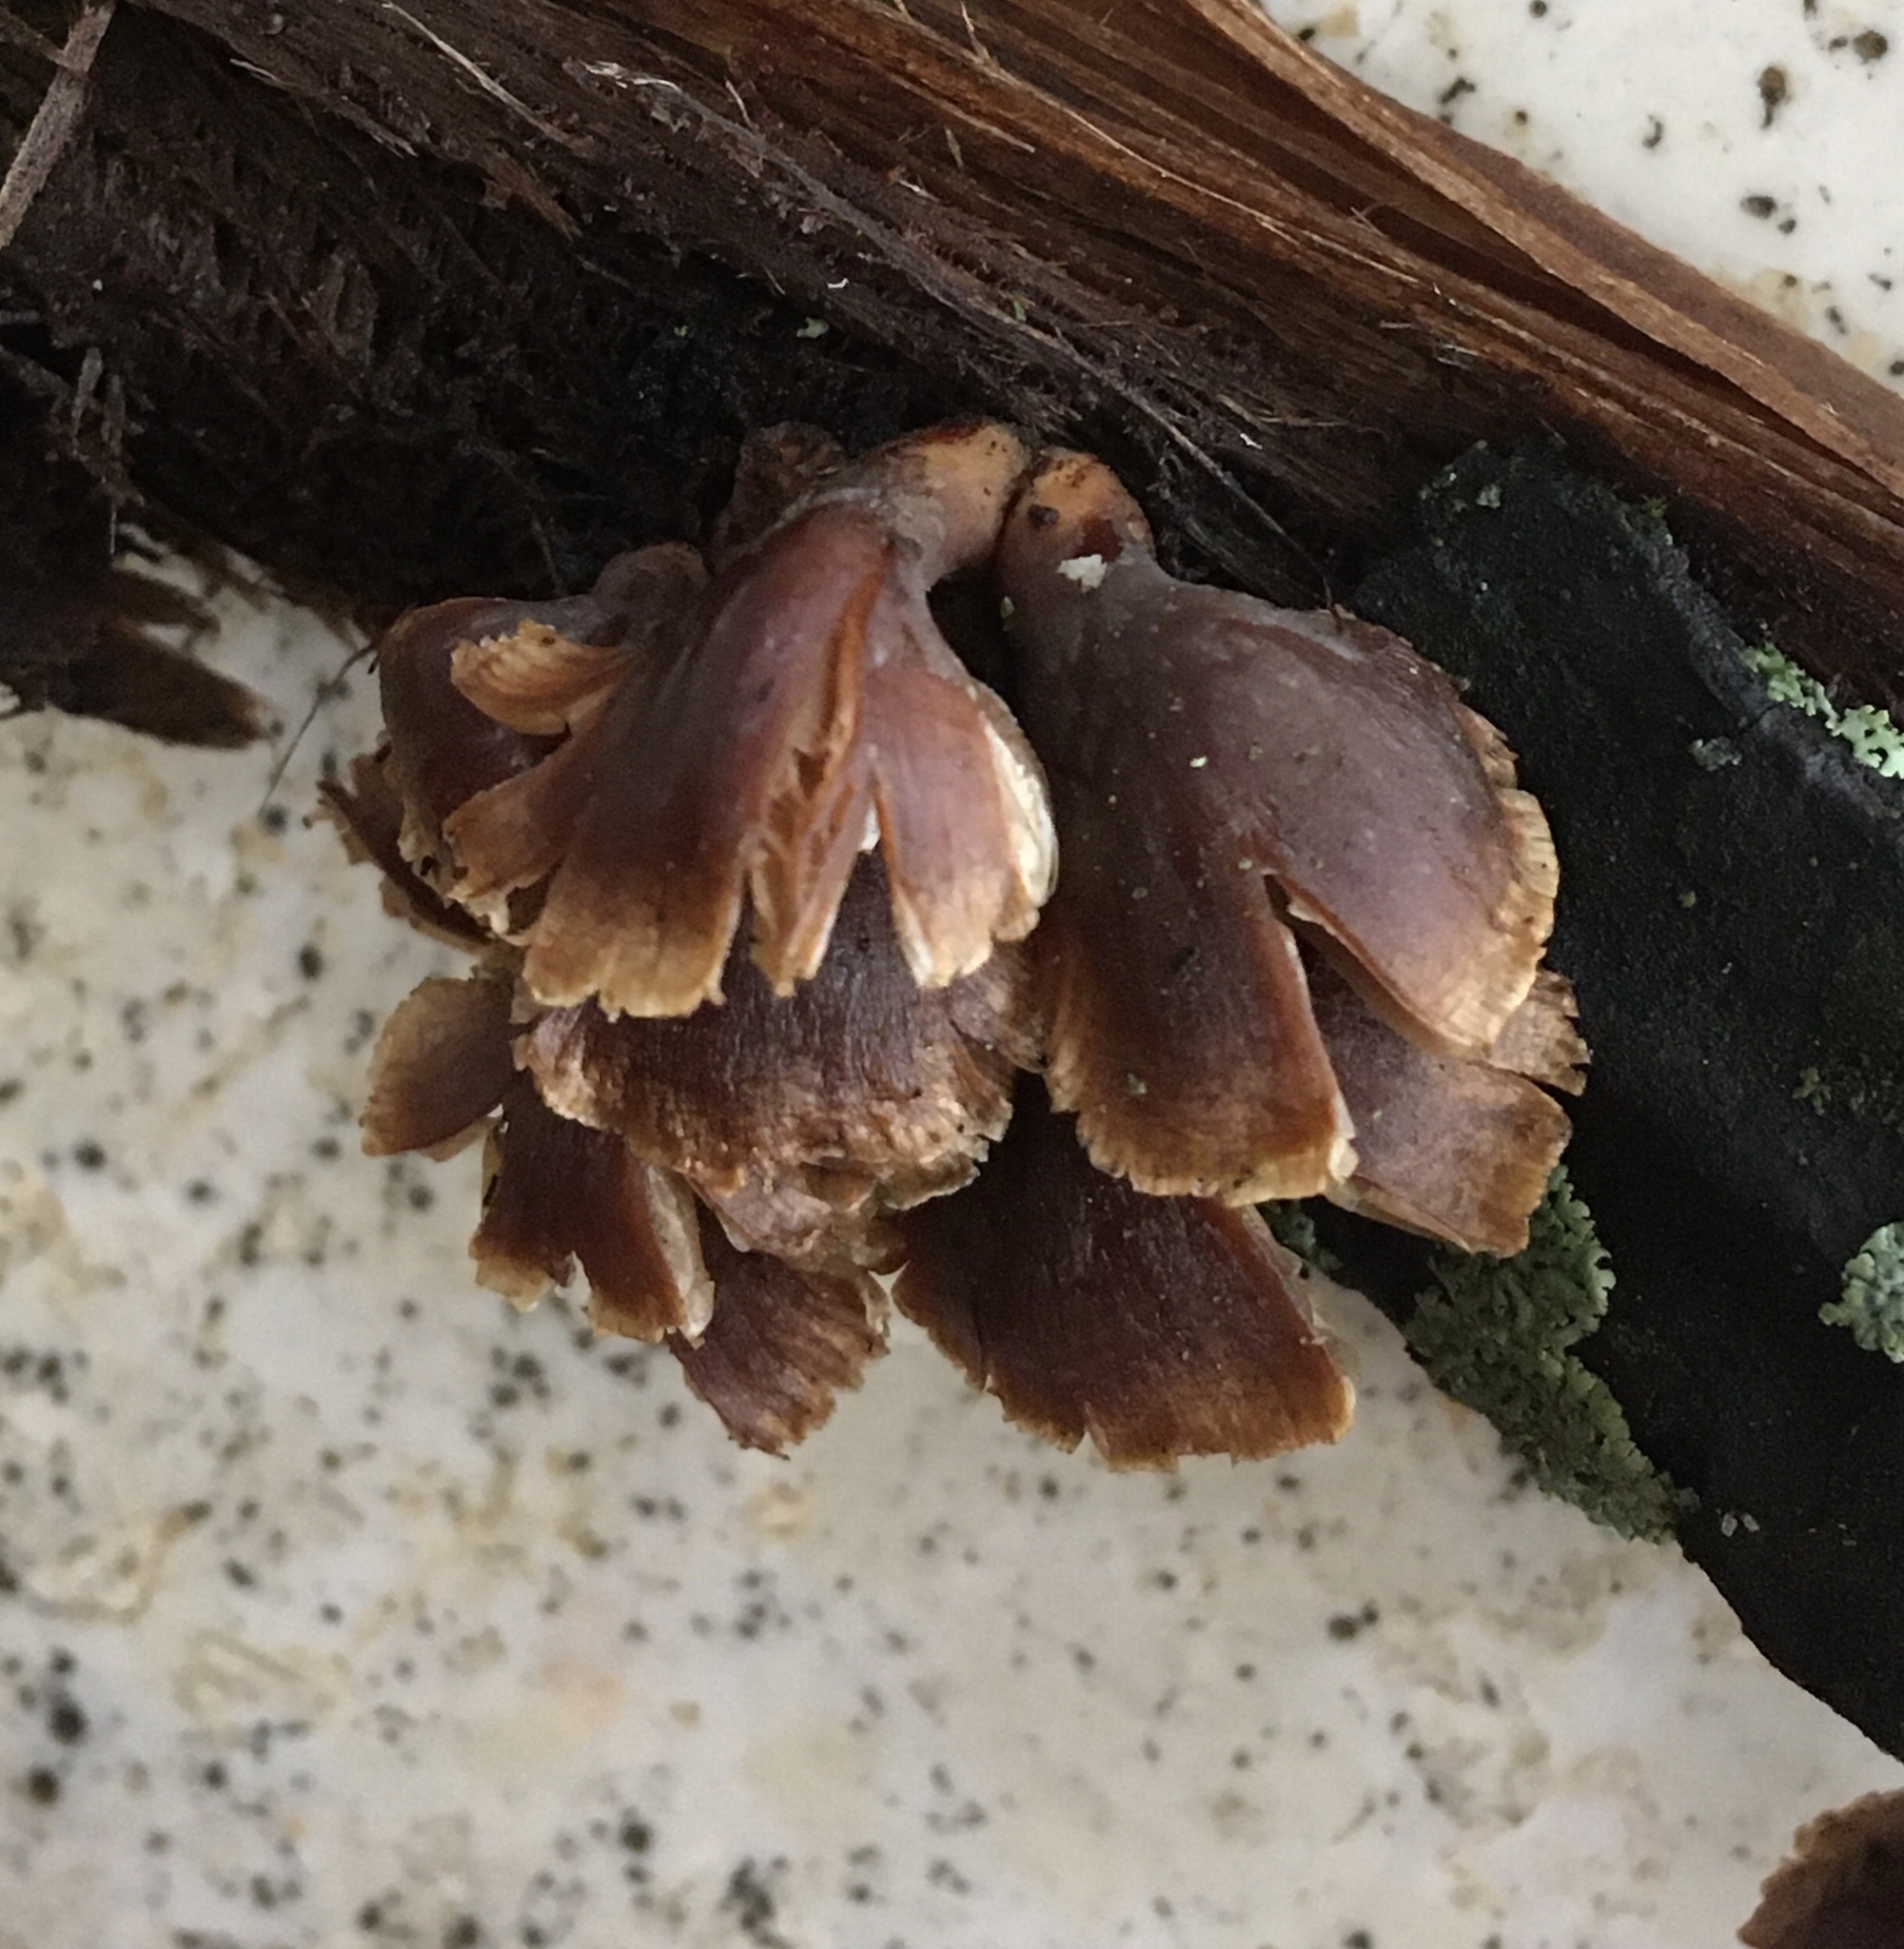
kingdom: Fungi
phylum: Basidiomycota
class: Agaricomycetes
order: Agaricales
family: Mycenaceae
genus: Tectella
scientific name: Tectella patellaris
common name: Veiled panus
